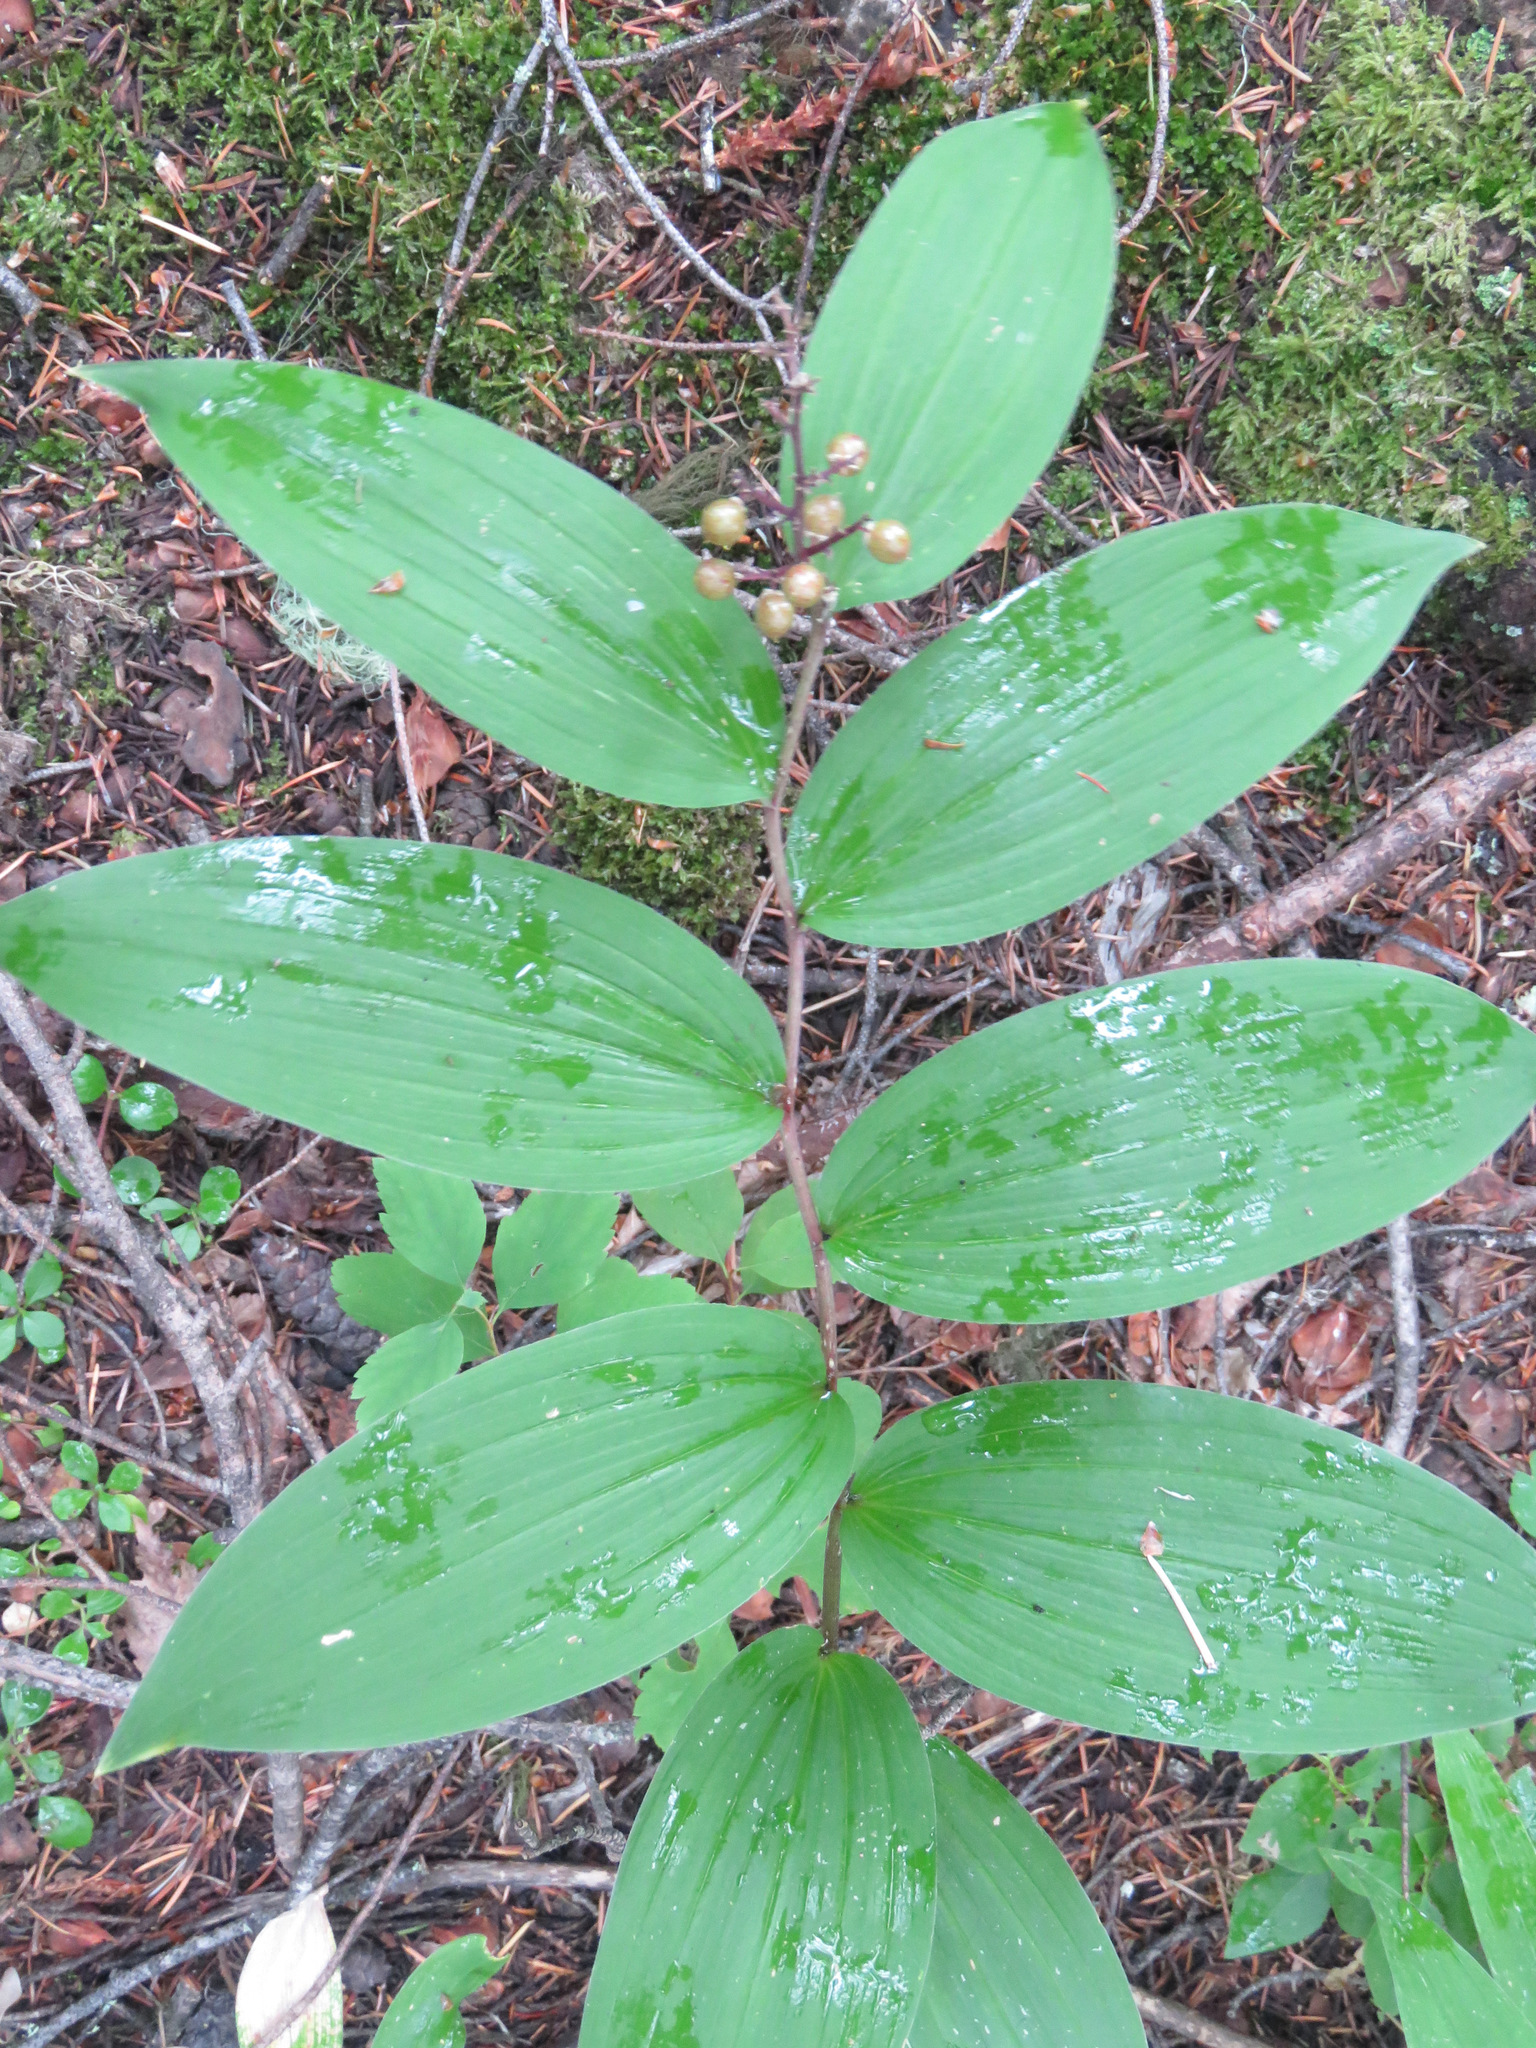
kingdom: Plantae
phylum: Tracheophyta
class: Liliopsida
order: Asparagales
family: Asparagaceae
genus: Maianthemum
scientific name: Maianthemum racemosum
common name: False spikenard
